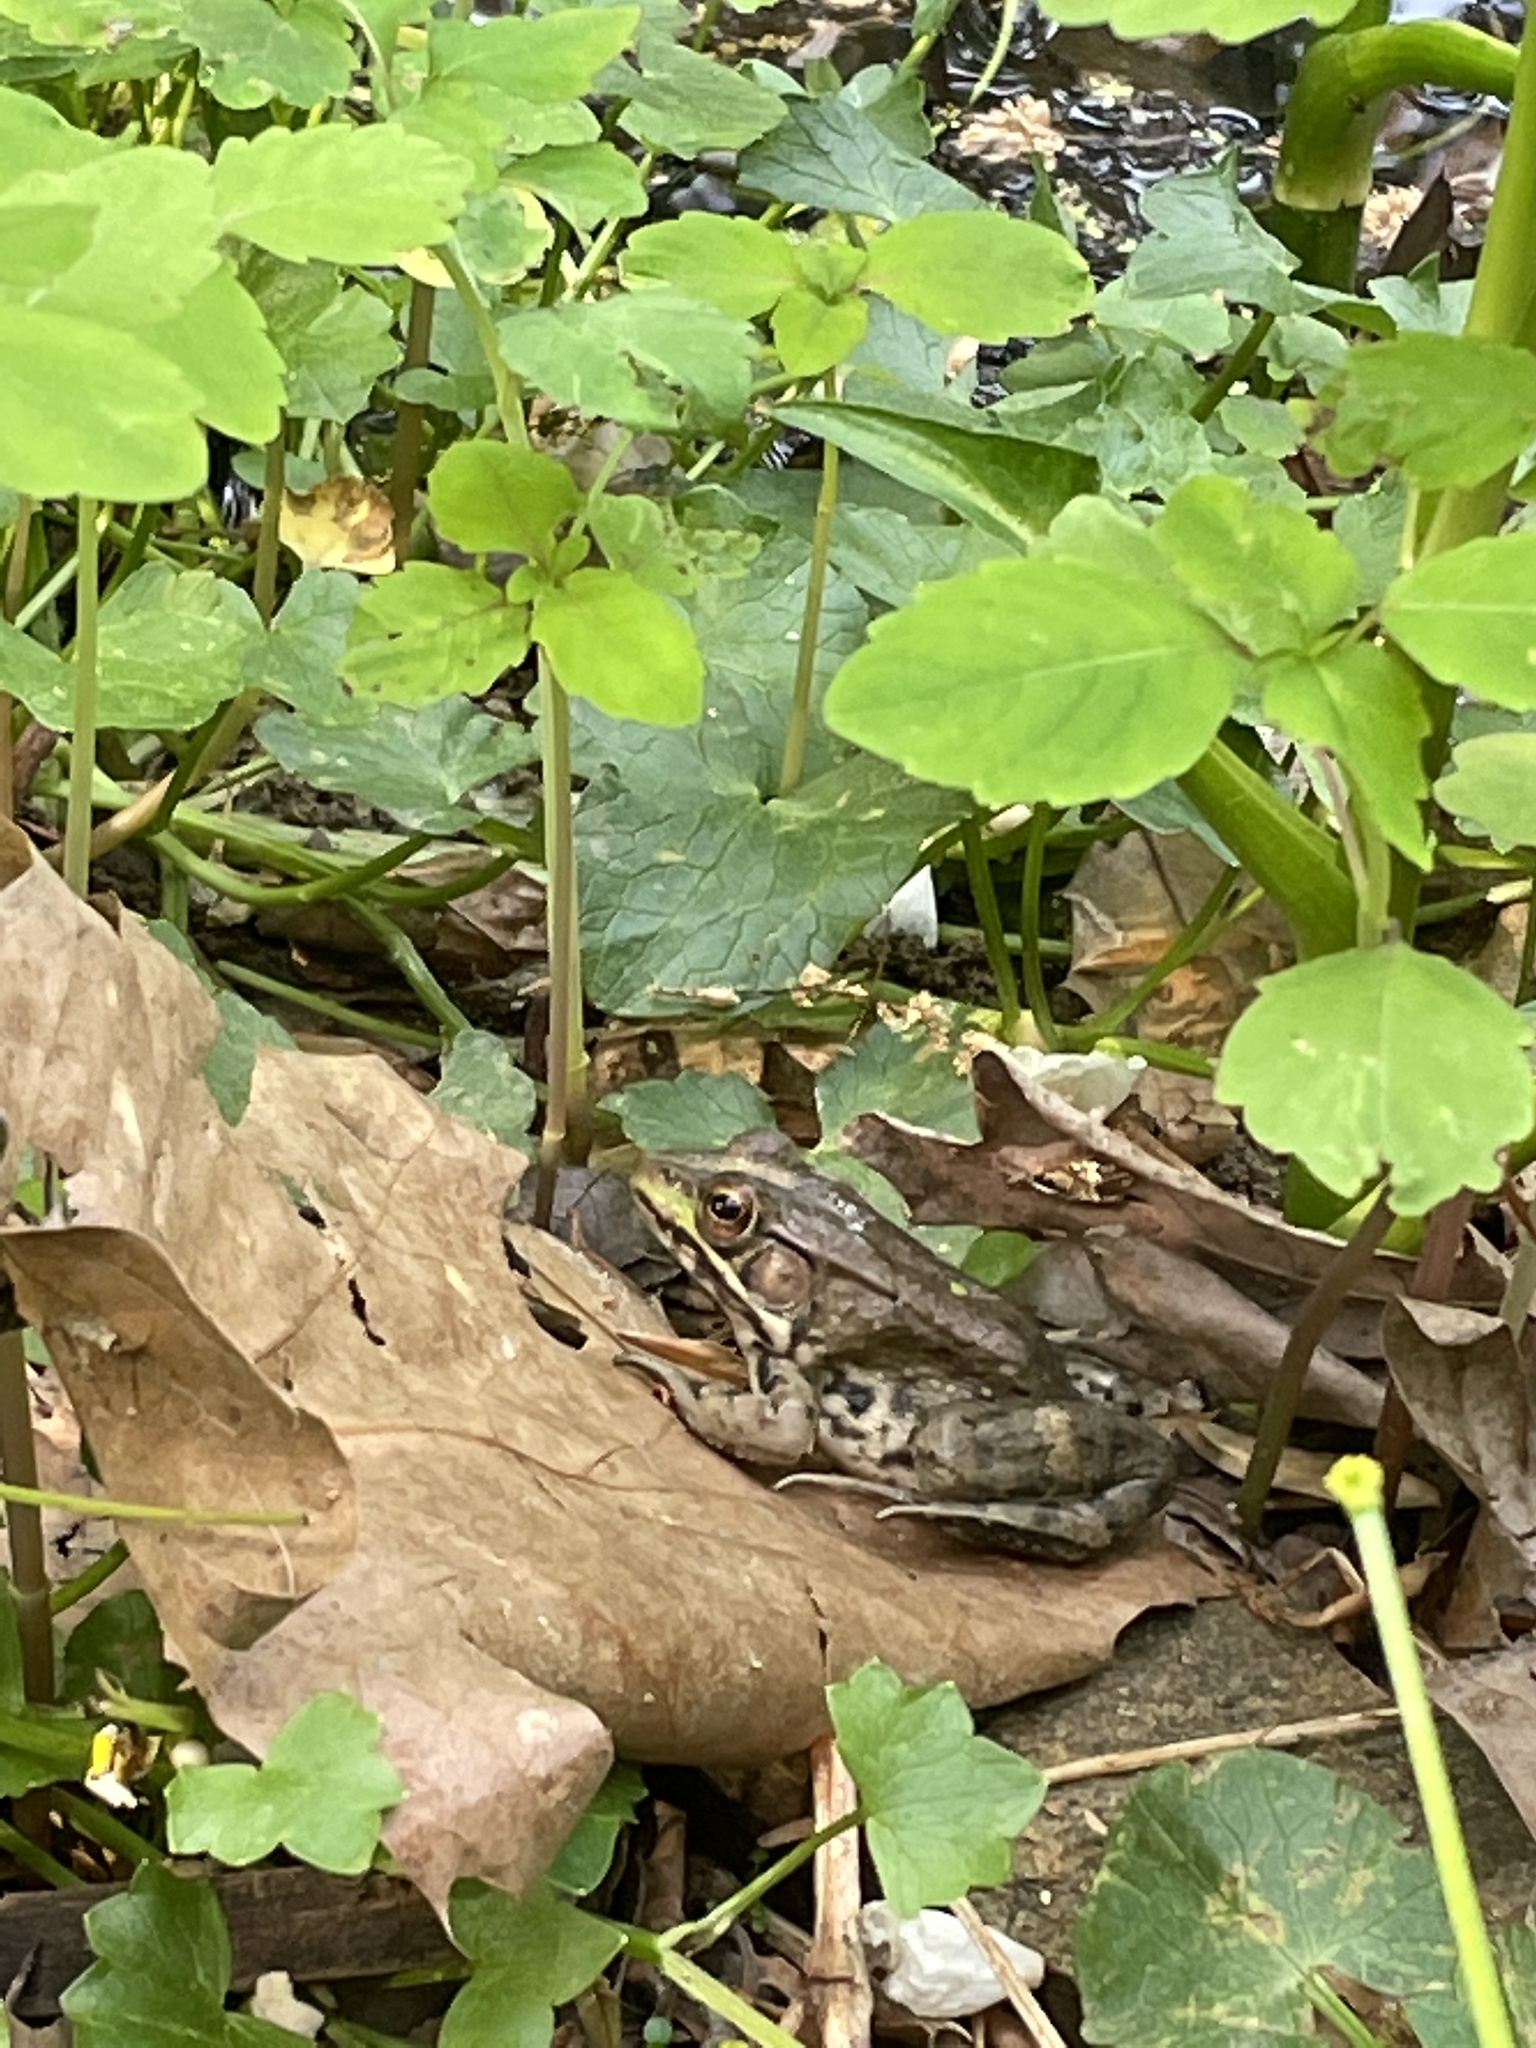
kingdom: Animalia
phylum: Chordata
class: Amphibia
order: Anura
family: Ranidae
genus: Lithobates
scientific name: Lithobates clamitans
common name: Green frog
